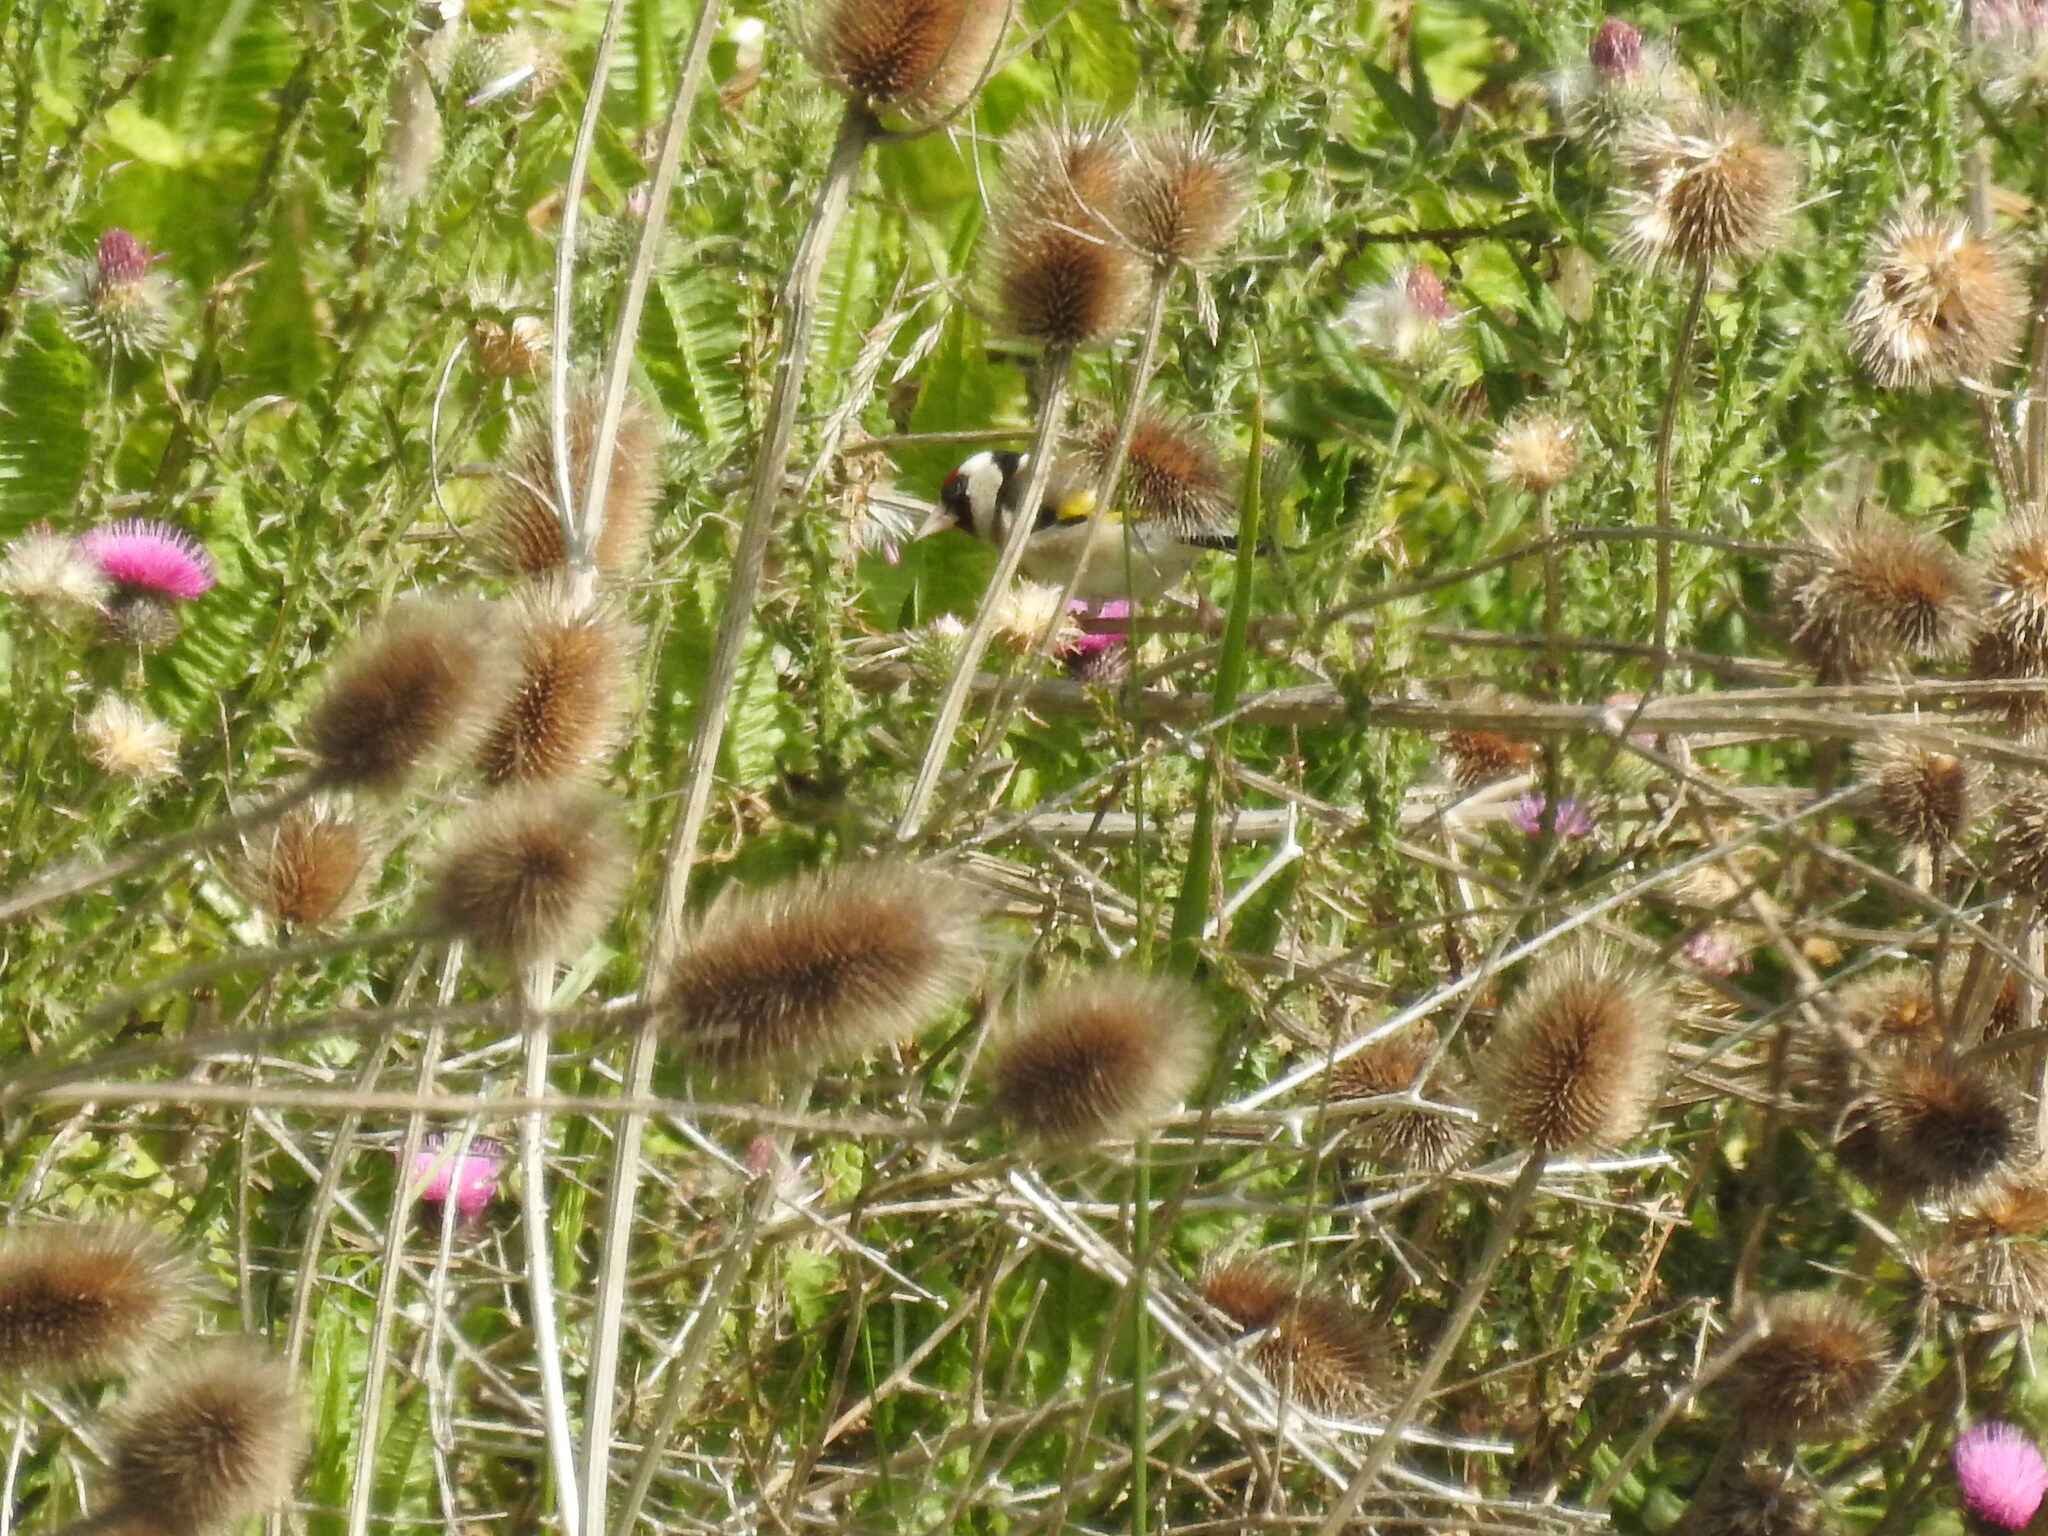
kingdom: Animalia
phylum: Chordata
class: Aves
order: Passeriformes
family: Fringillidae
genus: Carduelis
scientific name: Carduelis carduelis
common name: European goldfinch
